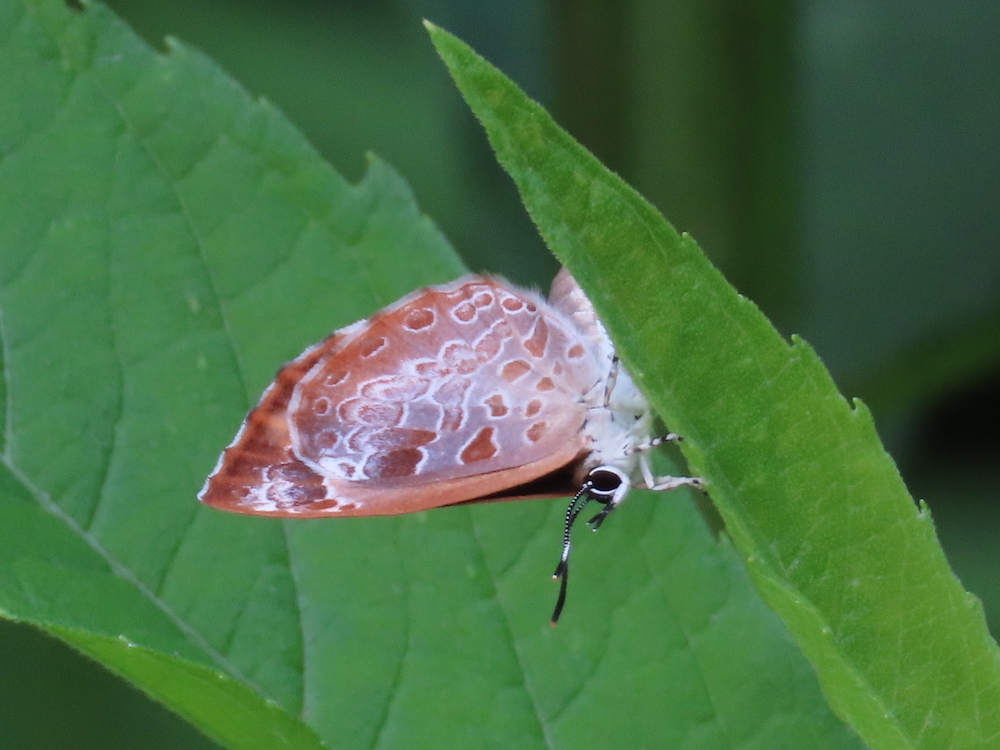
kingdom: Animalia
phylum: Arthropoda
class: Insecta
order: Lepidoptera
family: Lycaenidae
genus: Feniseca
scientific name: Feniseca tarquinius
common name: Harvester
